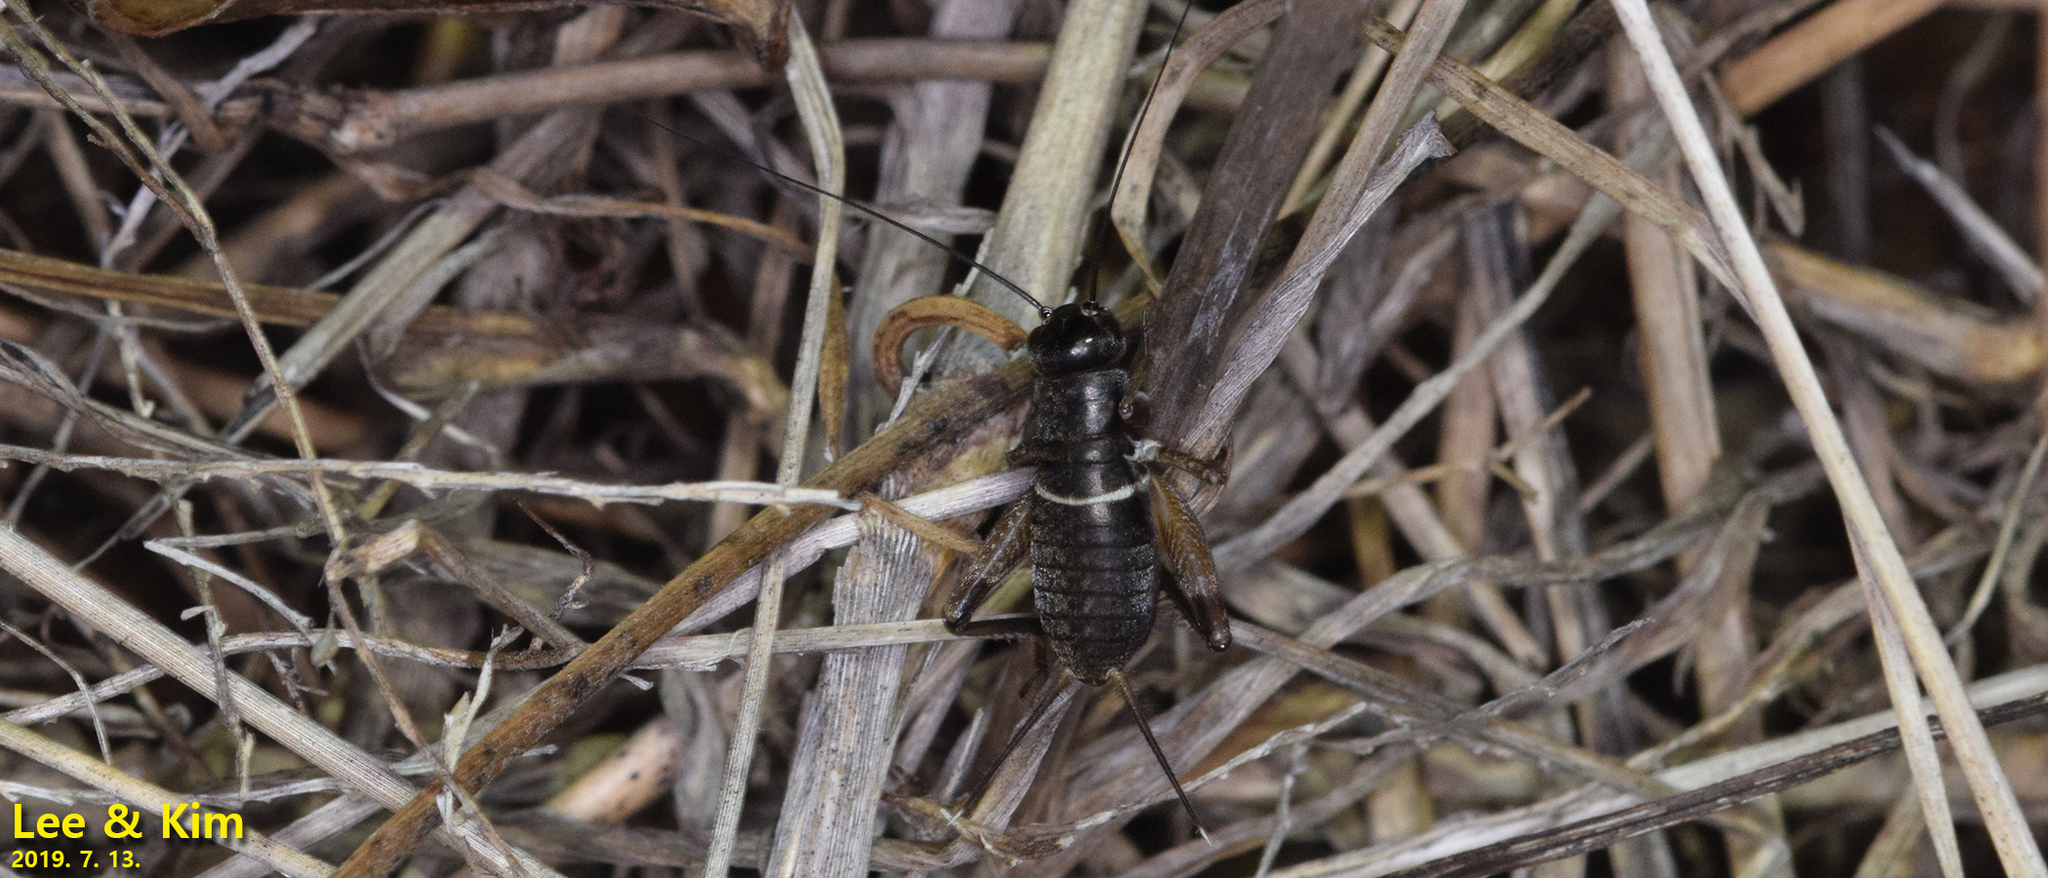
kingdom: Animalia
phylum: Arthropoda
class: Insecta
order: Orthoptera
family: Gryllidae
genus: Teleogryllus
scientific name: Teleogryllus emma
